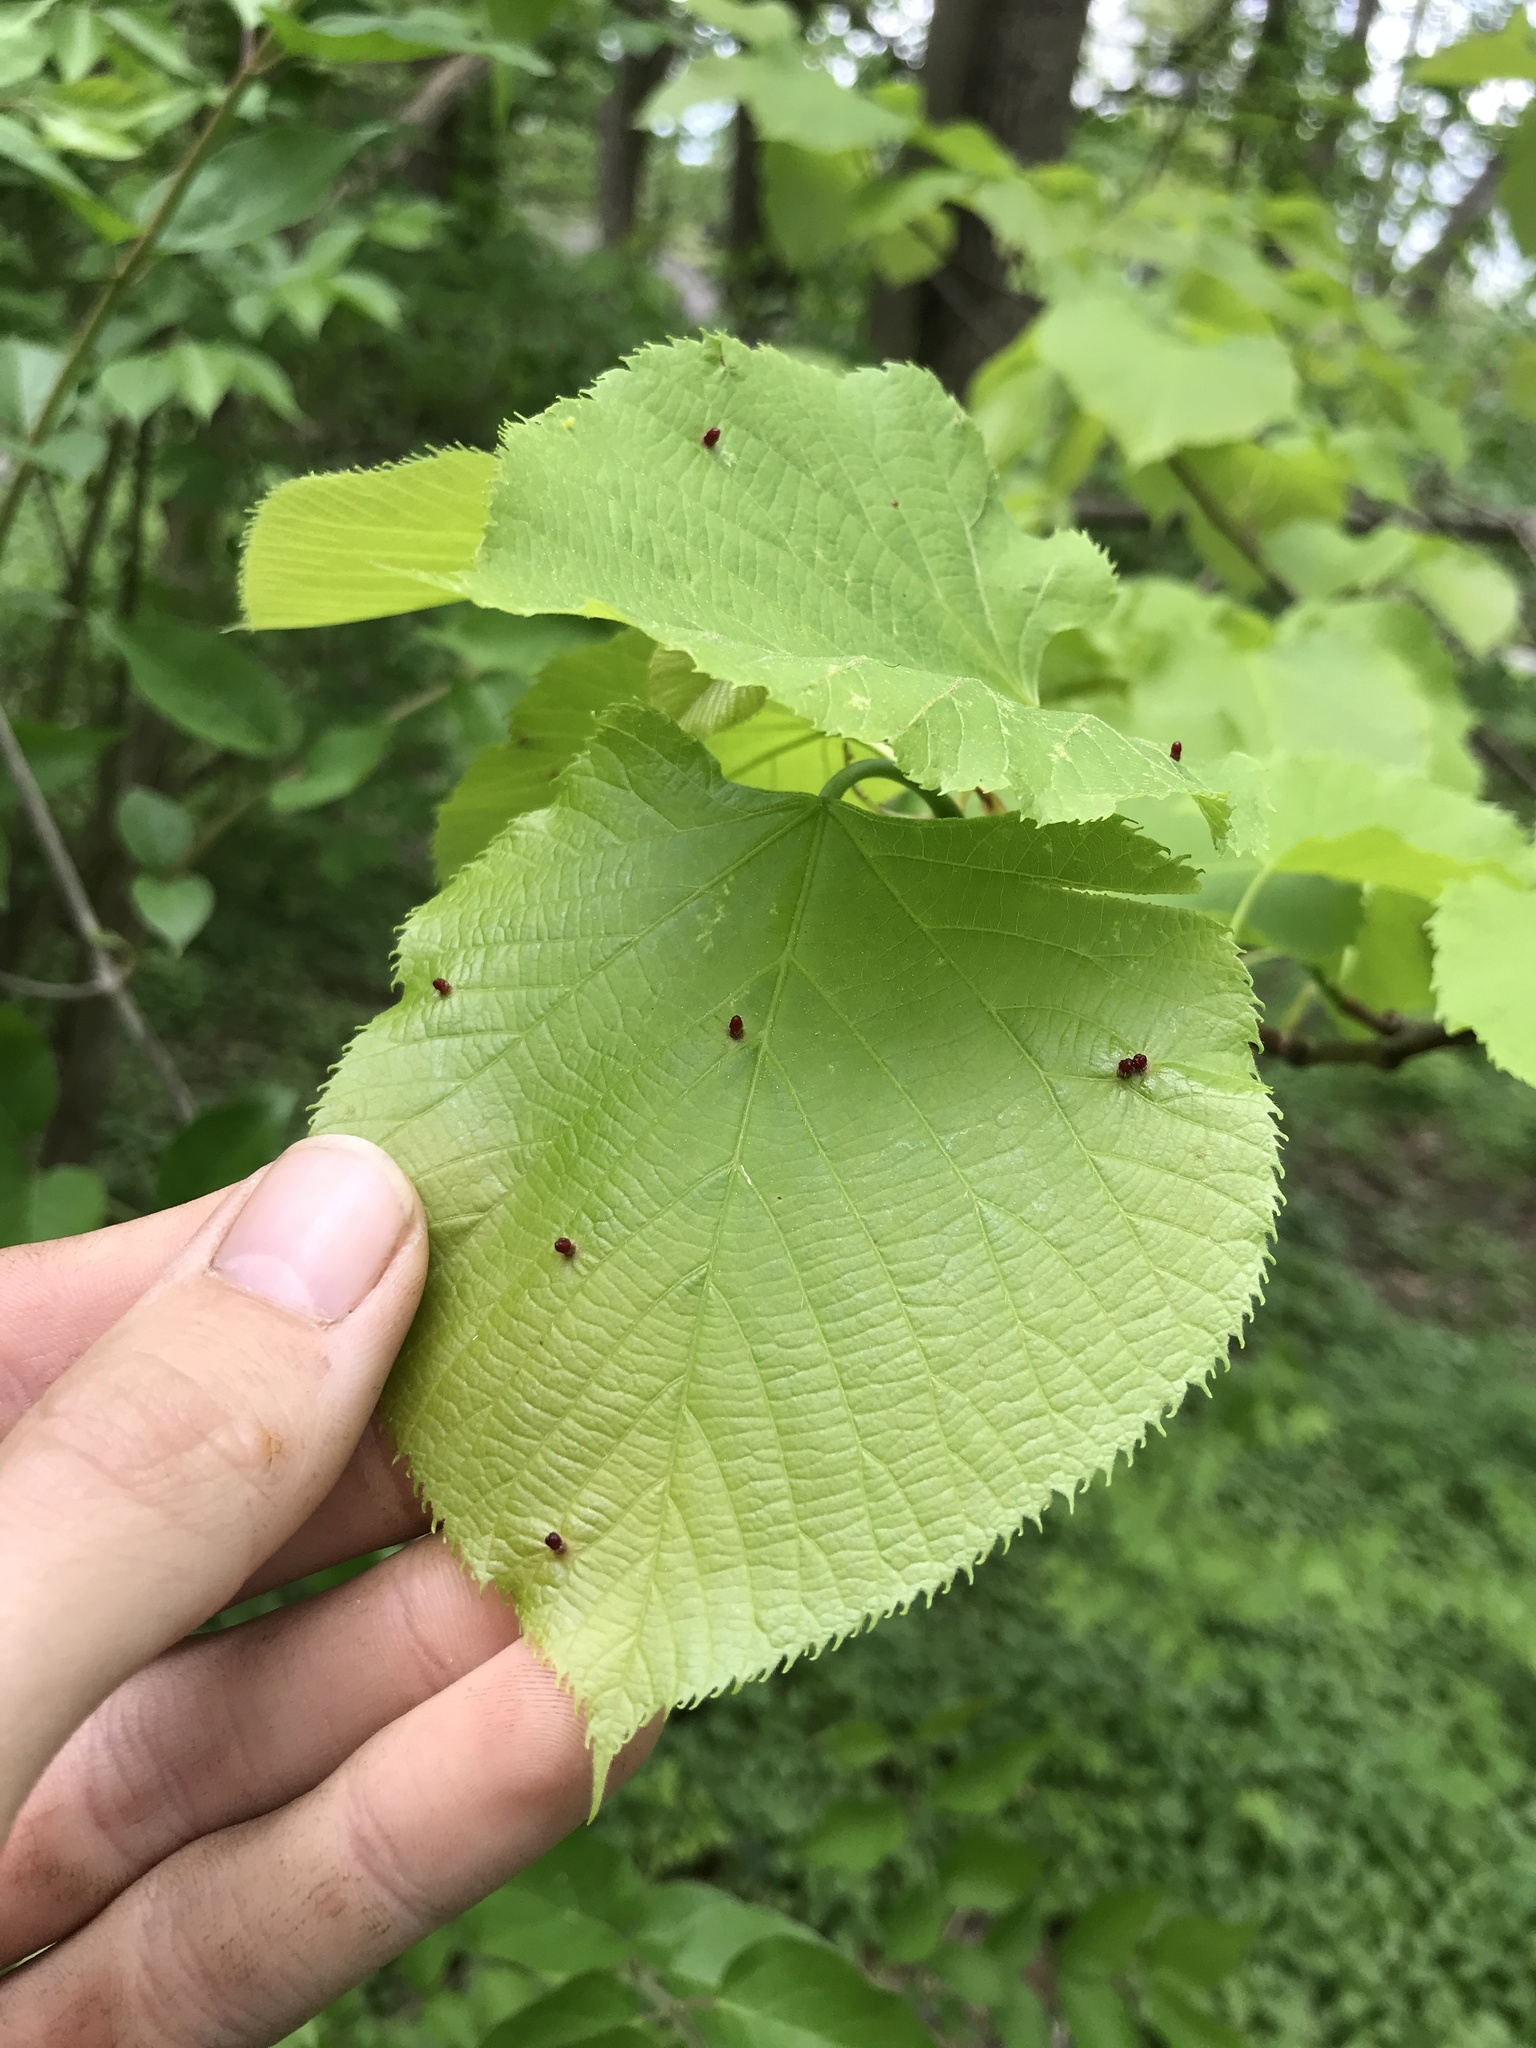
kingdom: Animalia
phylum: Arthropoda
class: Arachnida
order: Trombidiformes
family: Eriophyidae
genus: Eriophyes
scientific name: Eriophyes tiliae
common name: Red nail gall mite
